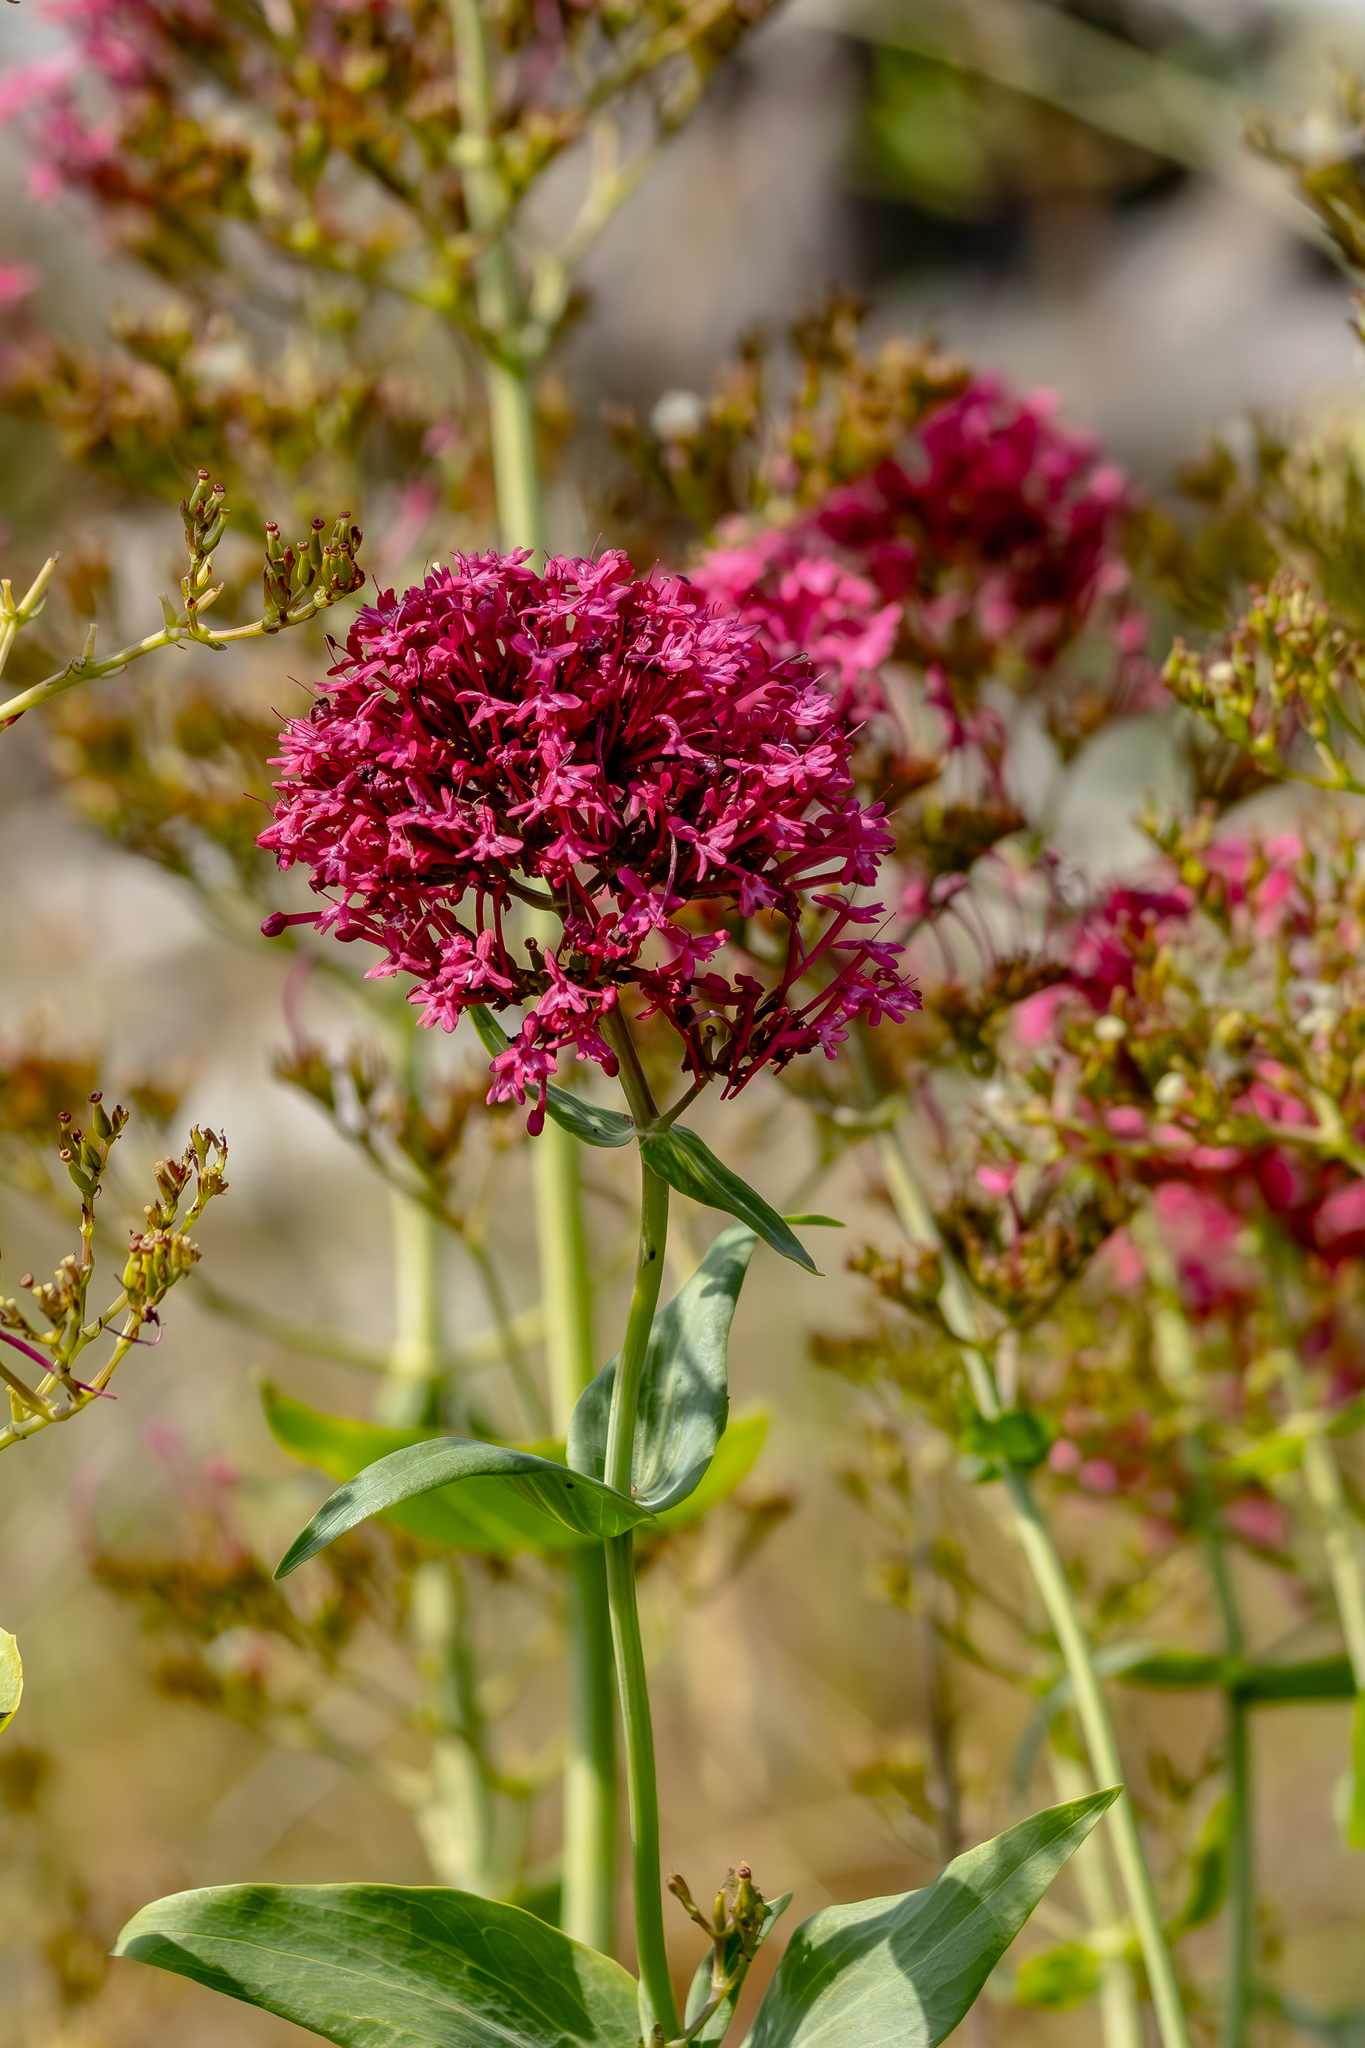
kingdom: Plantae
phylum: Tracheophyta
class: Magnoliopsida
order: Dipsacales
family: Caprifoliaceae
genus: Centranthus
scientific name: Centranthus ruber
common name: Red valerian
